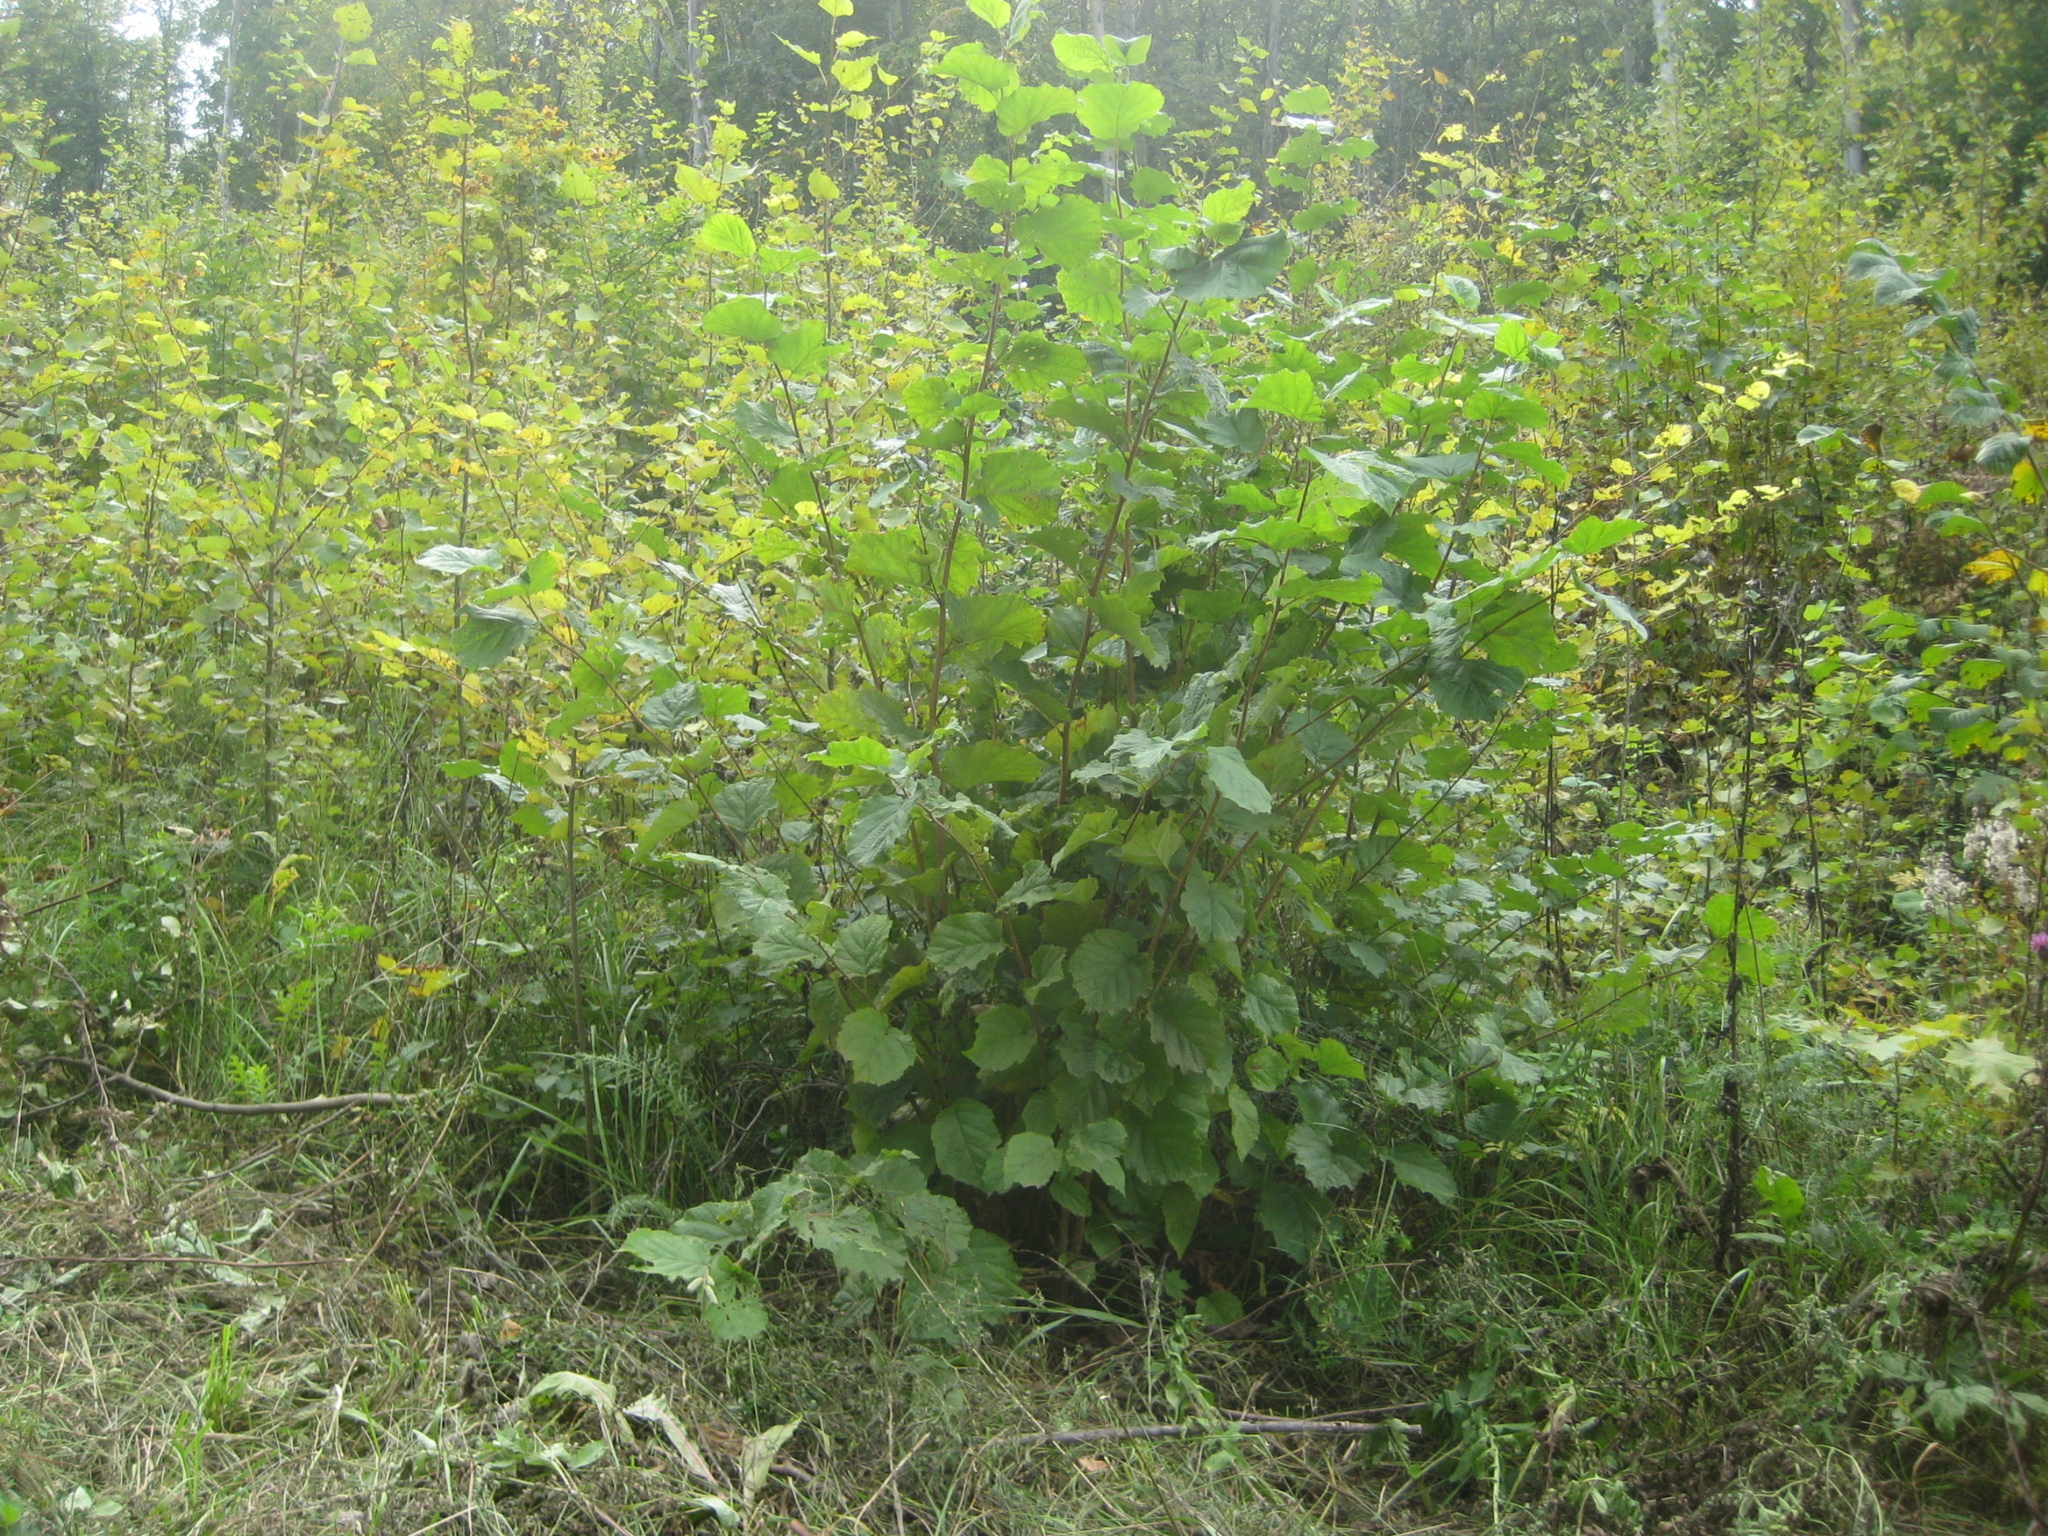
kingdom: Plantae
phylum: Tracheophyta
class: Magnoliopsida
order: Fagales
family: Betulaceae
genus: Corylus
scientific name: Corylus avellana
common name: European hazel
